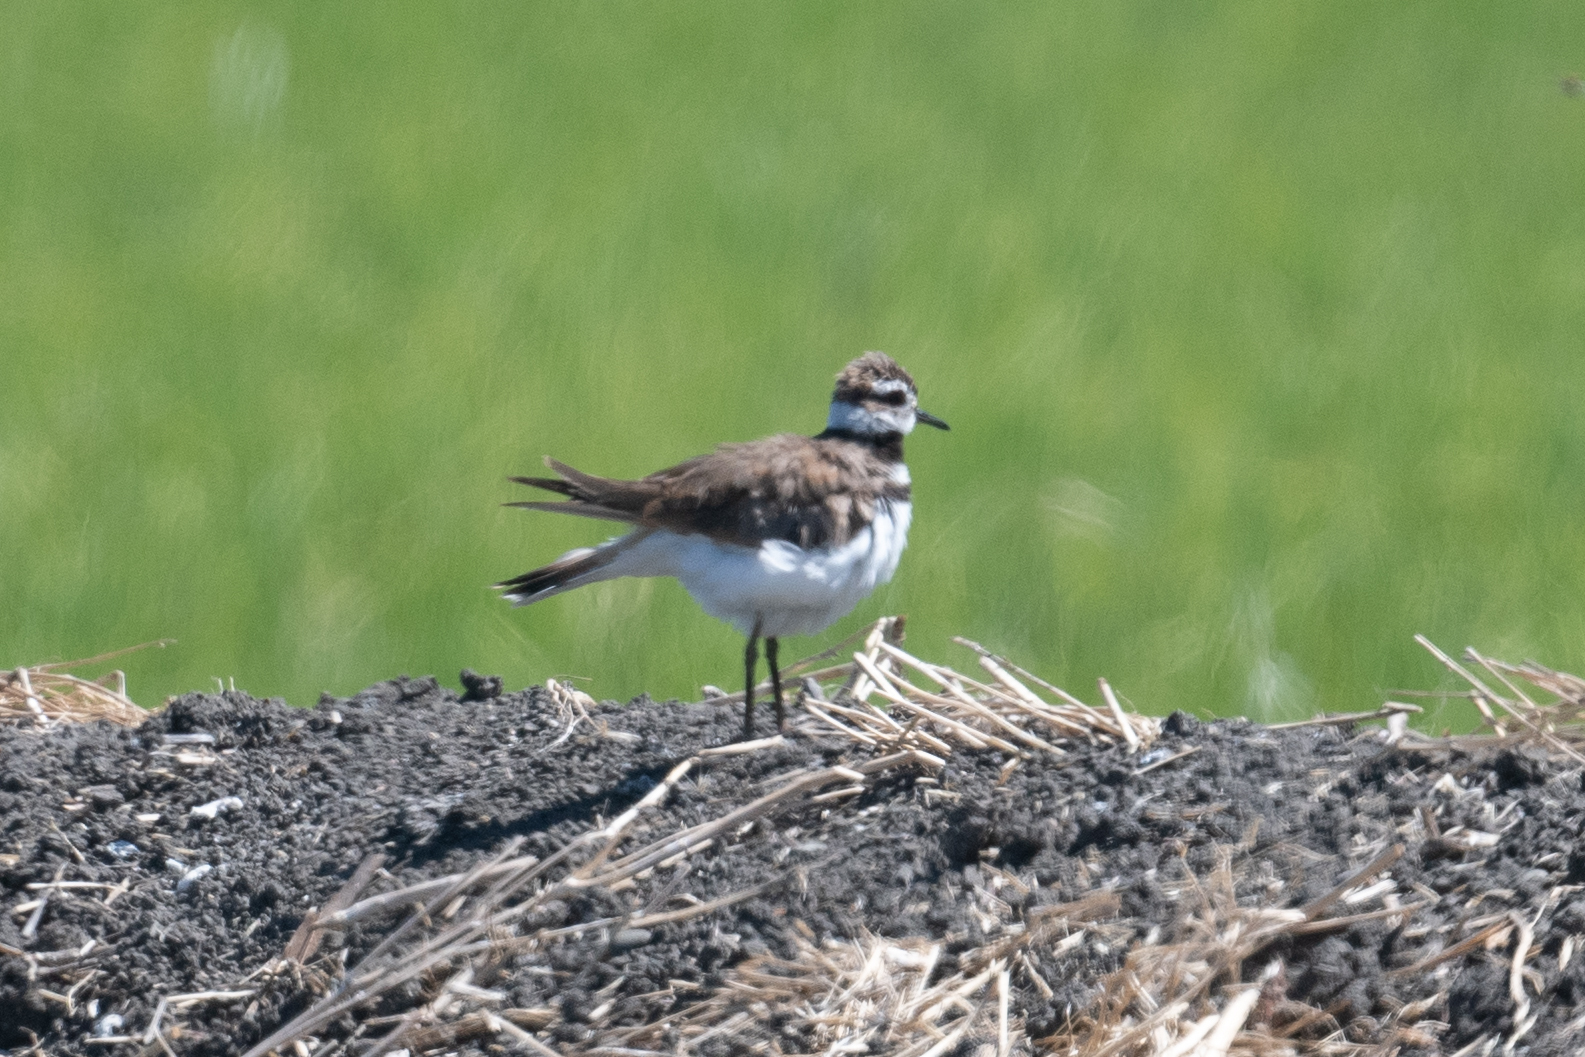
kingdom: Animalia
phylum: Chordata
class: Aves
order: Charadriiformes
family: Charadriidae
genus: Charadrius
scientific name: Charadrius vociferus
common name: Killdeer
